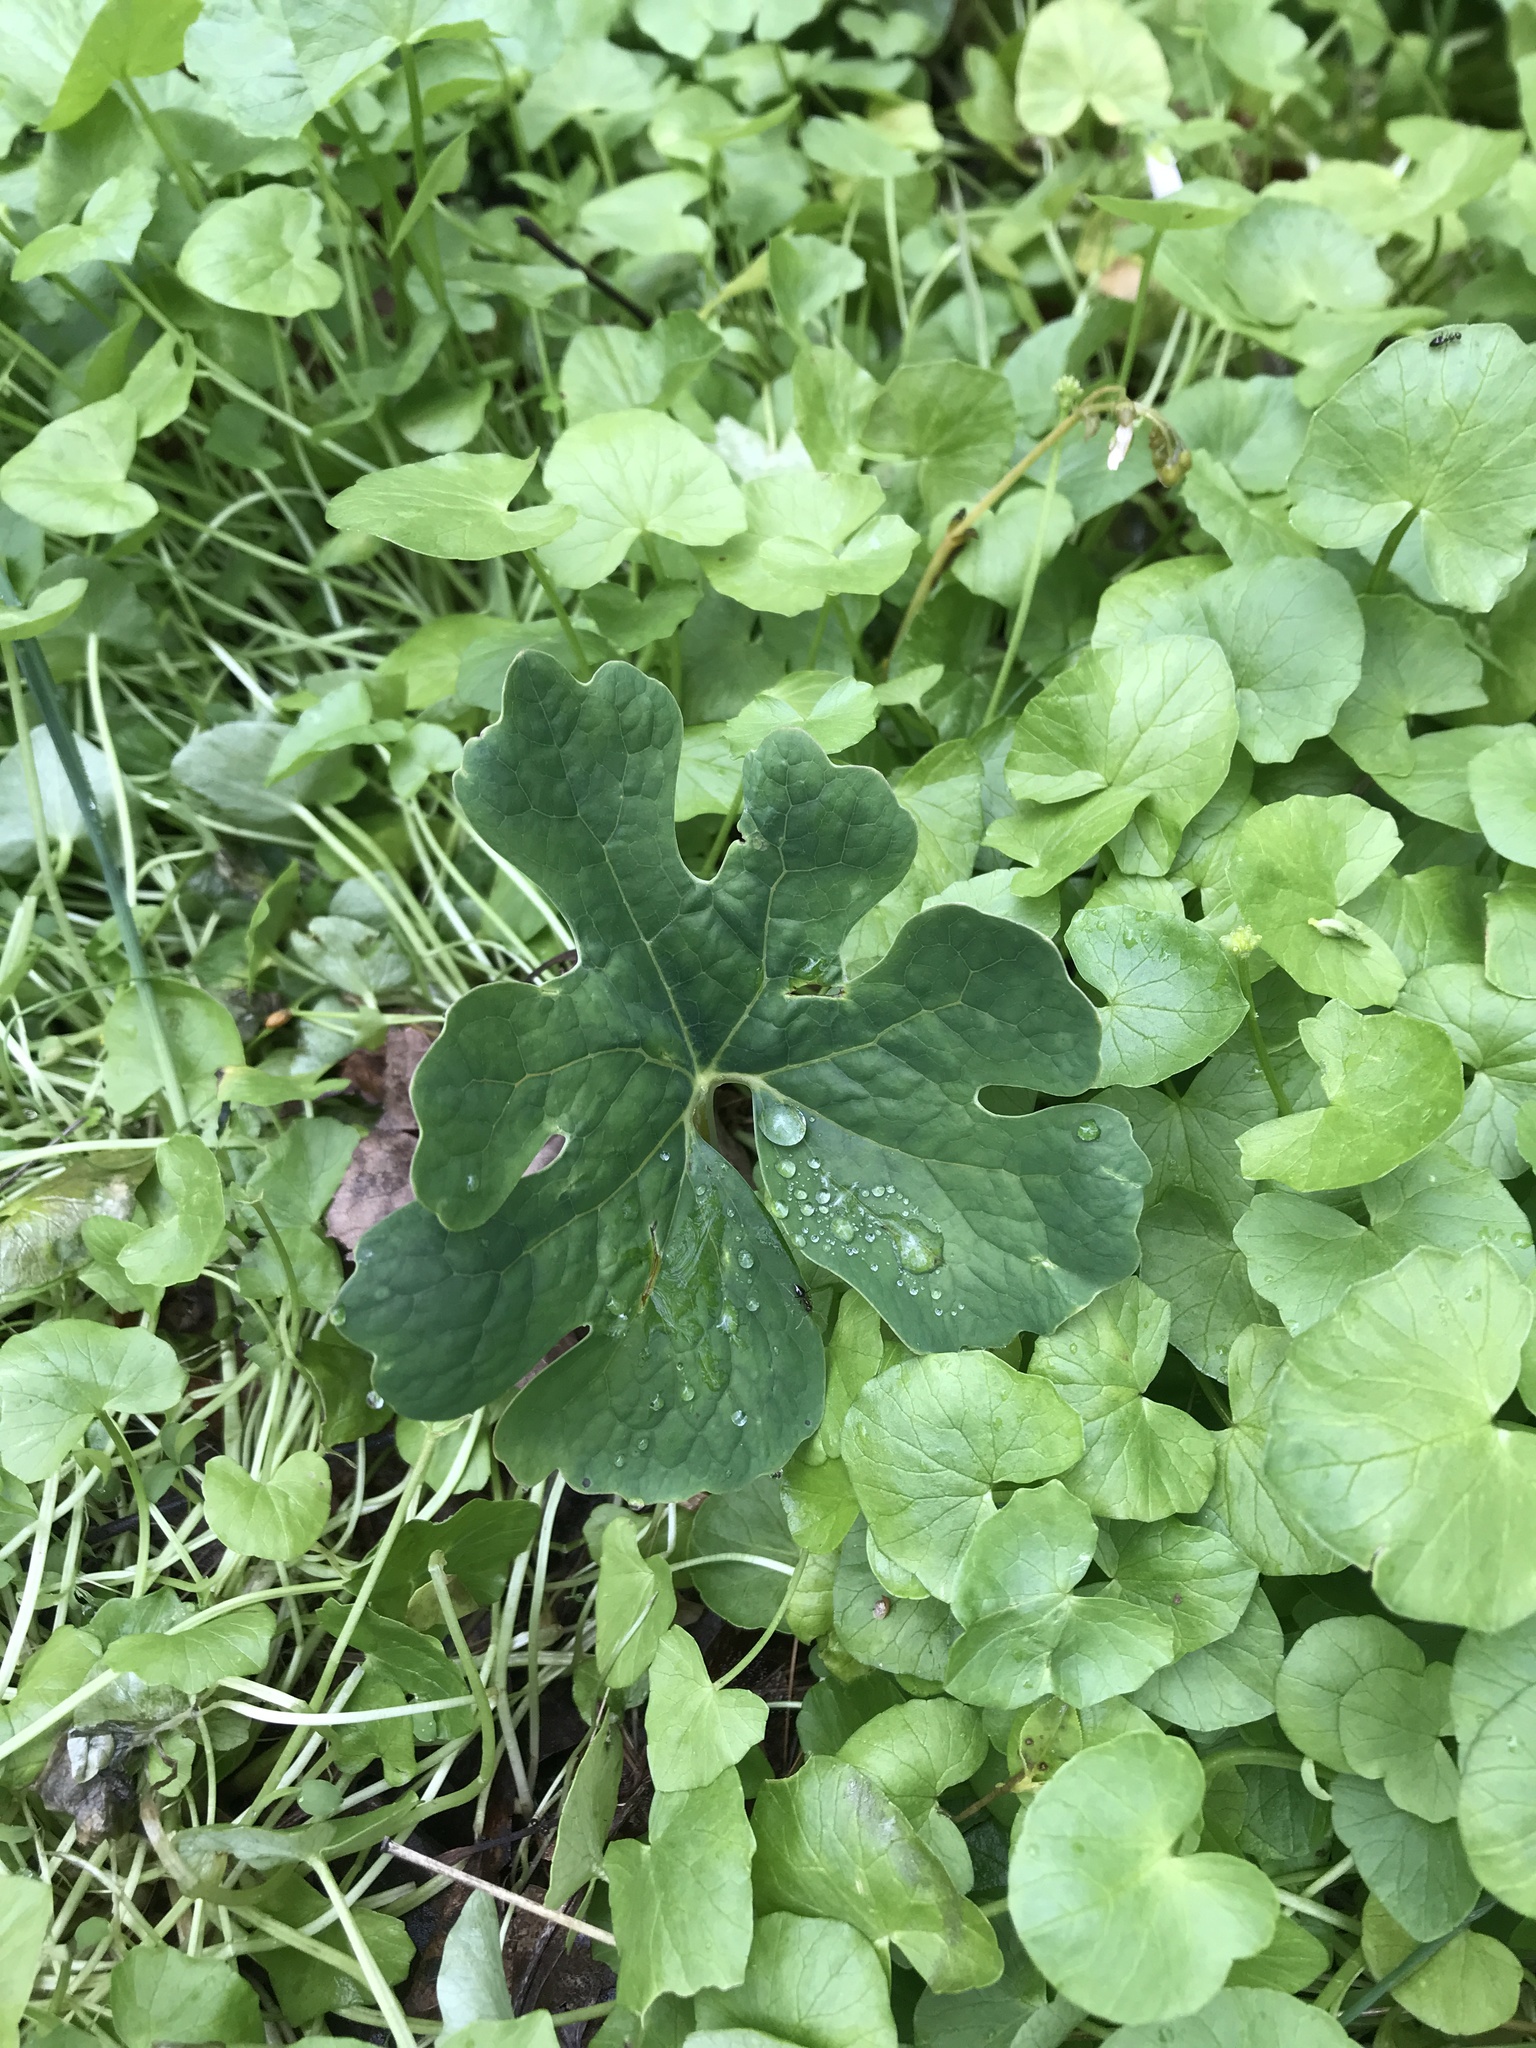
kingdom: Plantae
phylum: Tracheophyta
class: Magnoliopsida
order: Ranunculales
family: Papaveraceae
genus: Sanguinaria
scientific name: Sanguinaria canadensis
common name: Bloodroot
